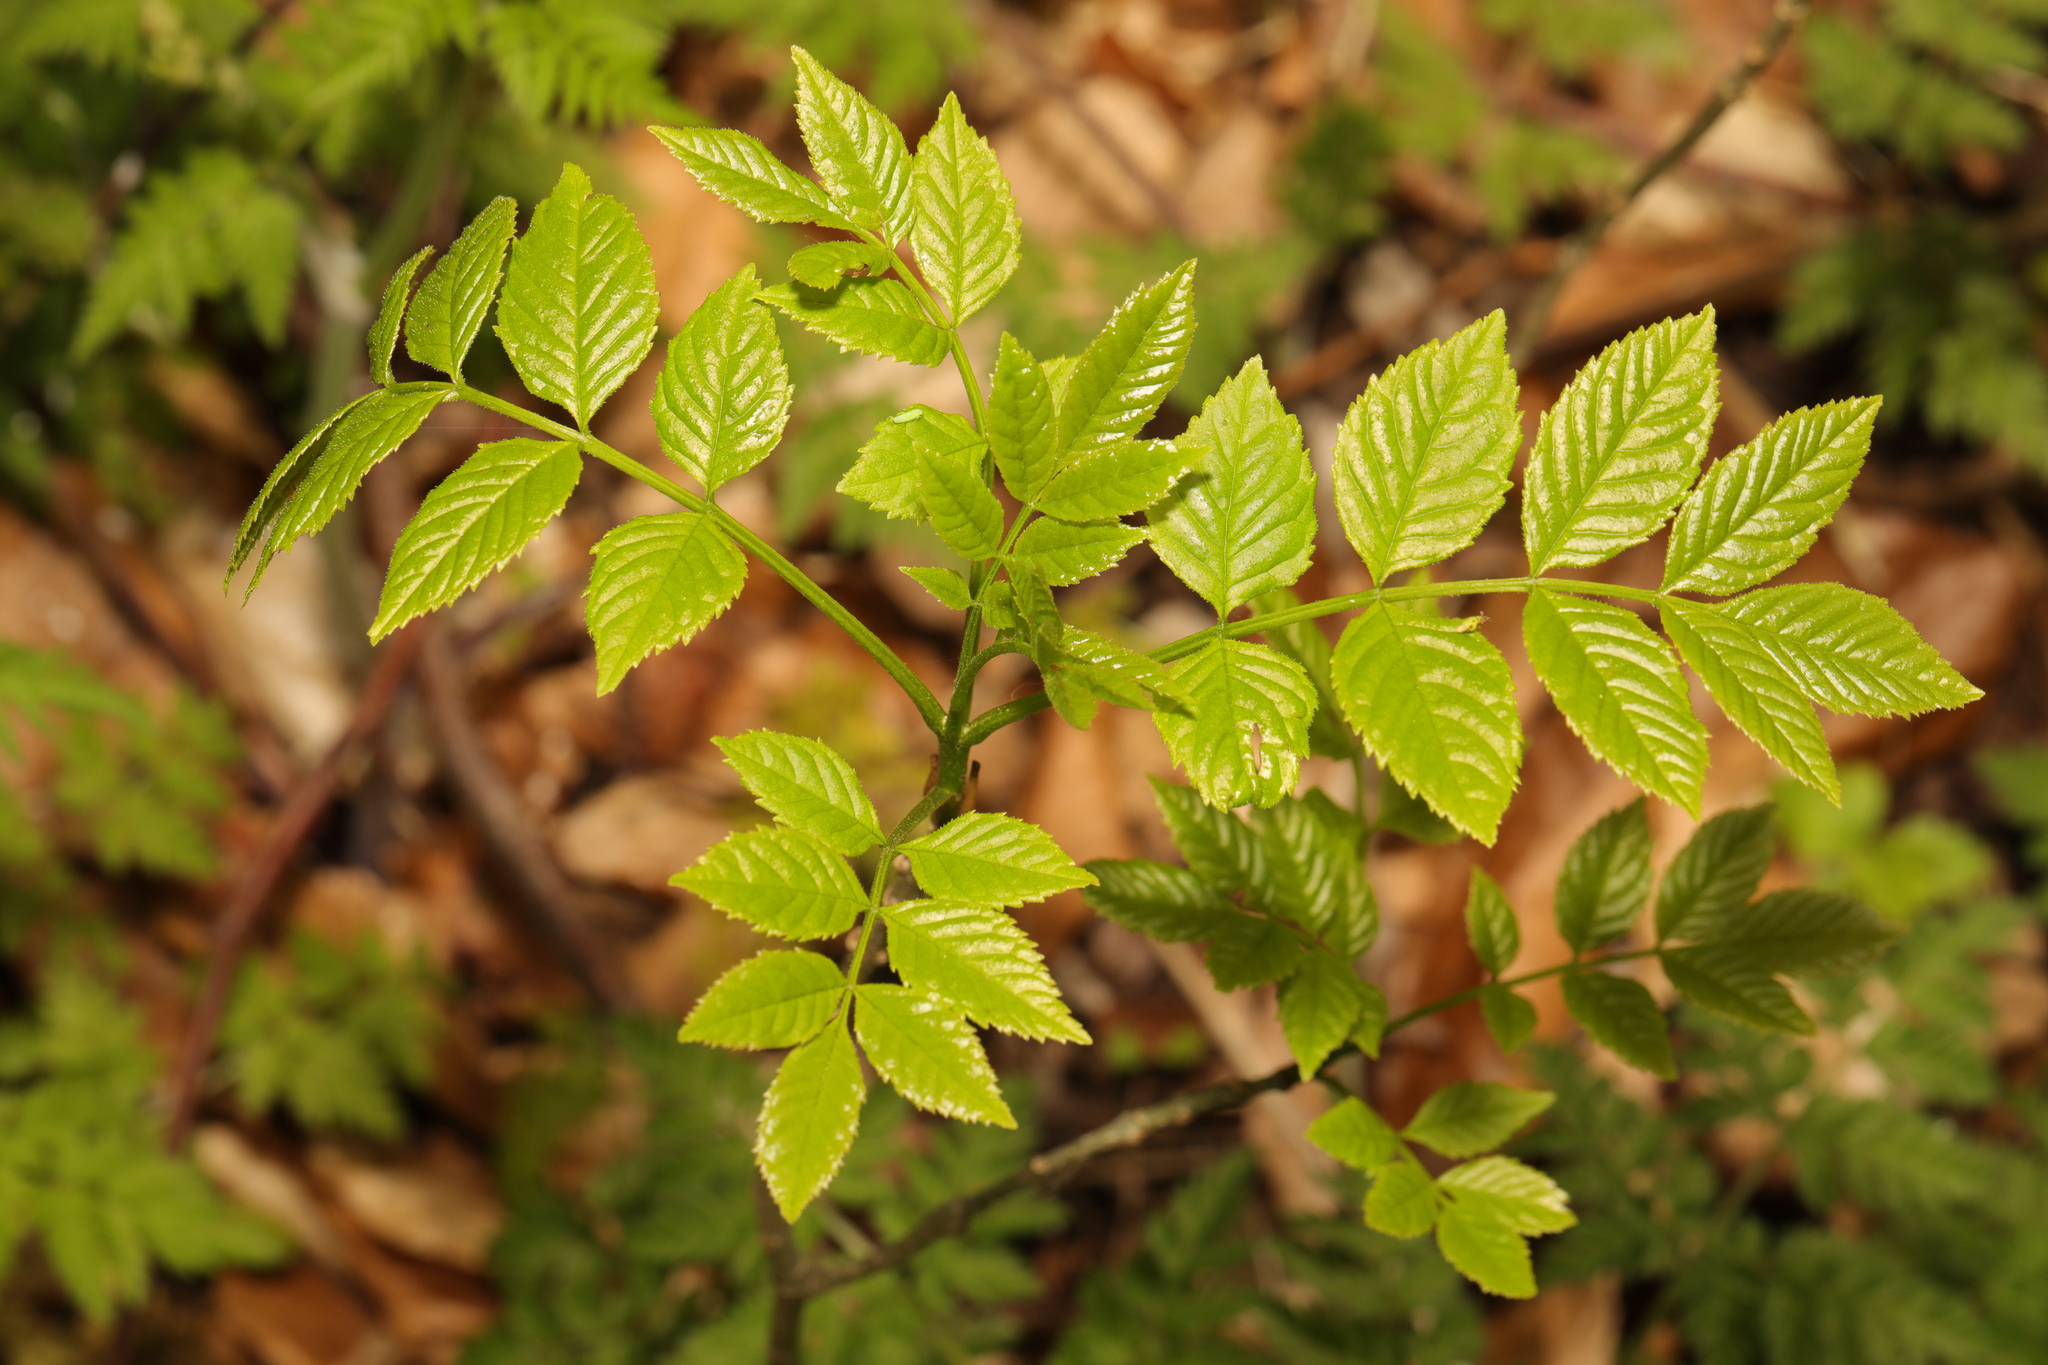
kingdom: Plantae
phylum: Tracheophyta
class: Magnoliopsida
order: Lamiales
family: Oleaceae
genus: Fraxinus
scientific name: Fraxinus excelsior
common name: European ash
